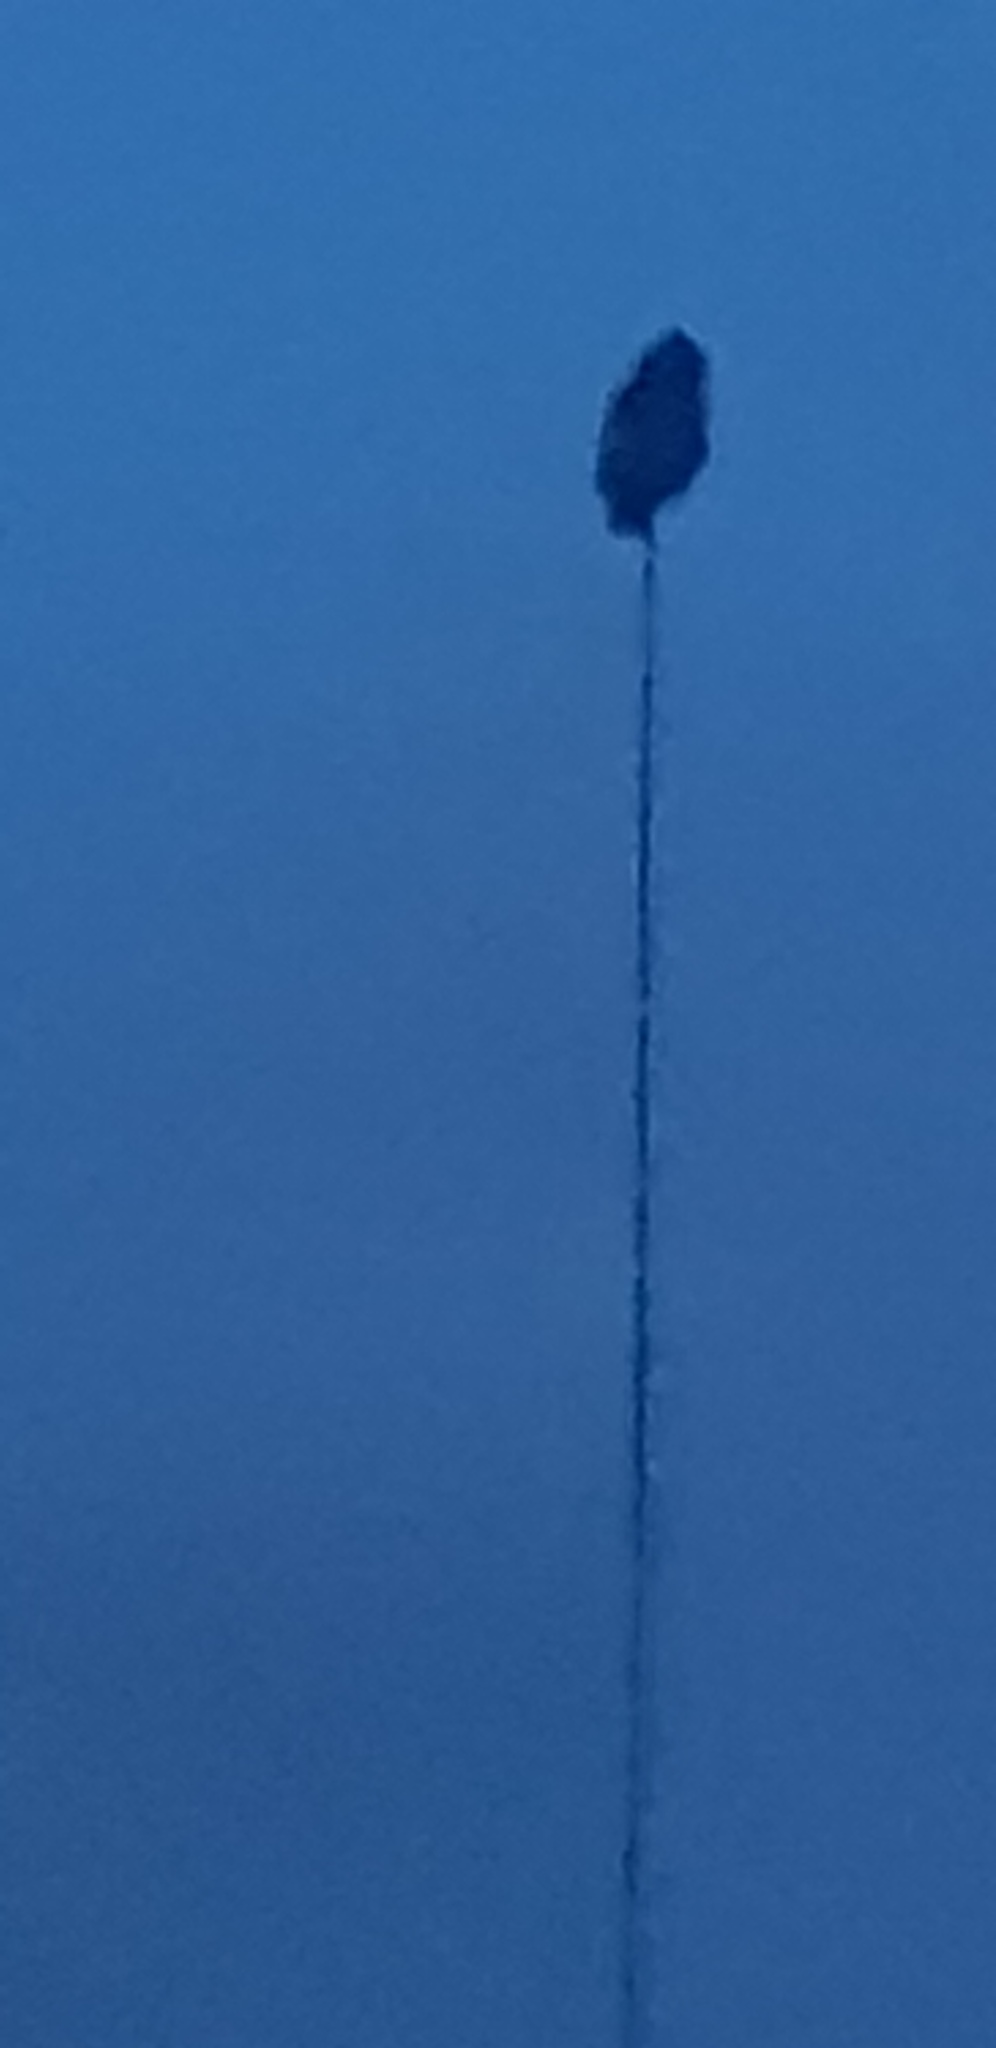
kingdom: Animalia
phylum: Chordata
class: Aves
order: Strigiformes
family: Strigidae
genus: Bubo
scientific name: Bubo virginianus
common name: Great horned owl
